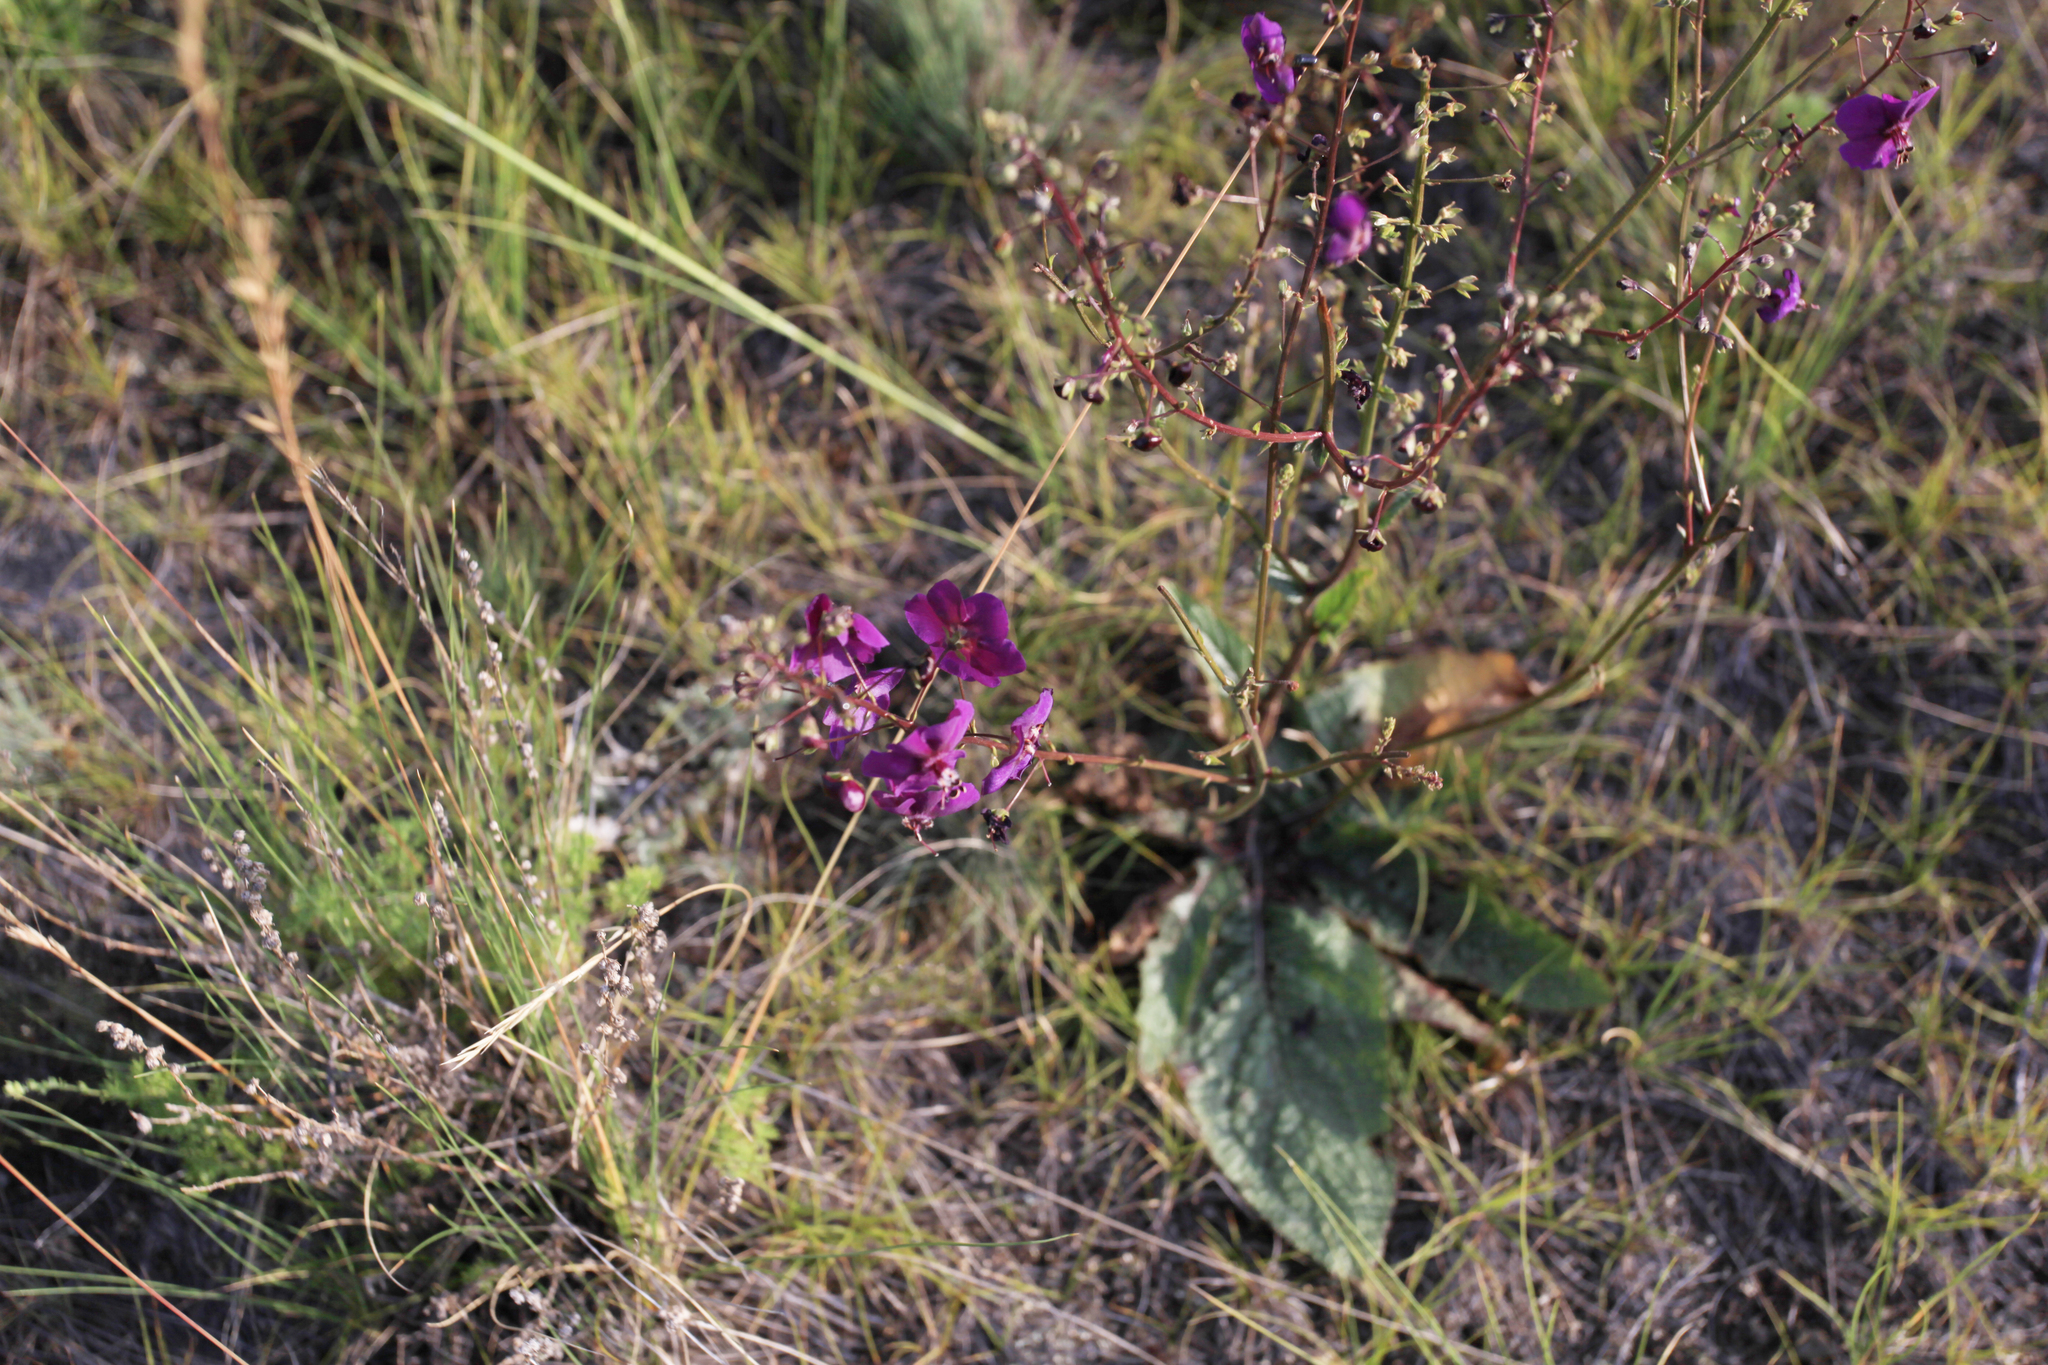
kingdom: Plantae
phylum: Tracheophyta
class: Magnoliopsida
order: Lamiales
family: Scrophulariaceae
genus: Verbascum
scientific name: Verbascum phoeniceum
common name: Purple mullein
